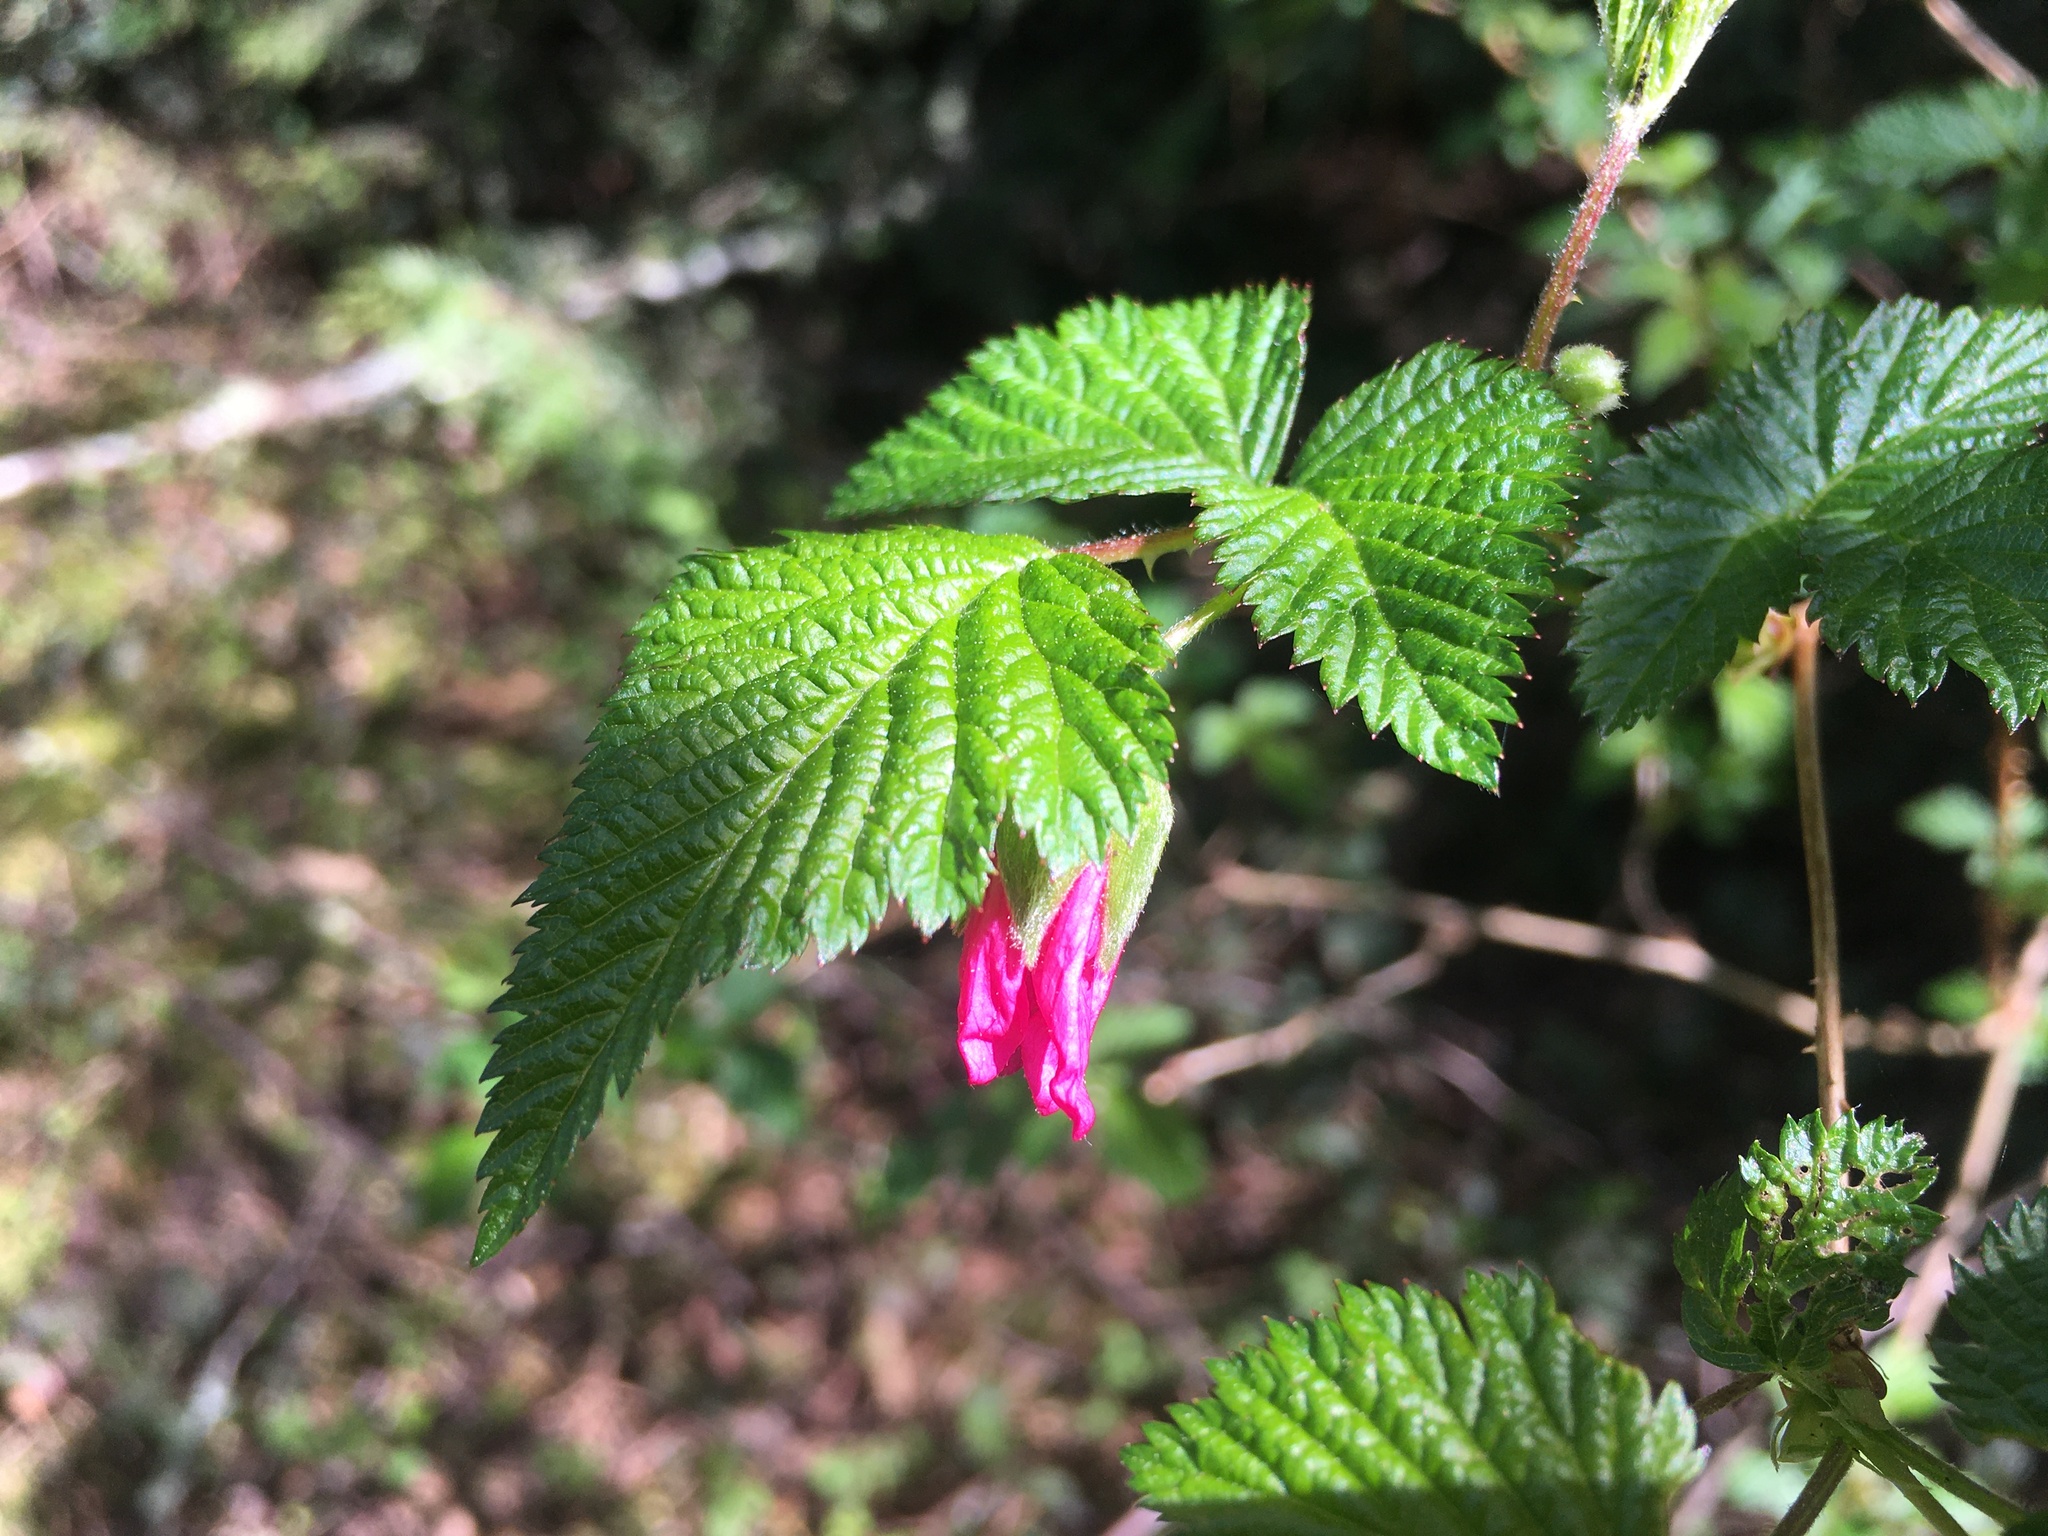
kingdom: Plantae
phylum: Tracheophyta
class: Magnoliopsida
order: Rosales
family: Rosaceae
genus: Rubus
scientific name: Rubus spectabilis
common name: Salmonberry
